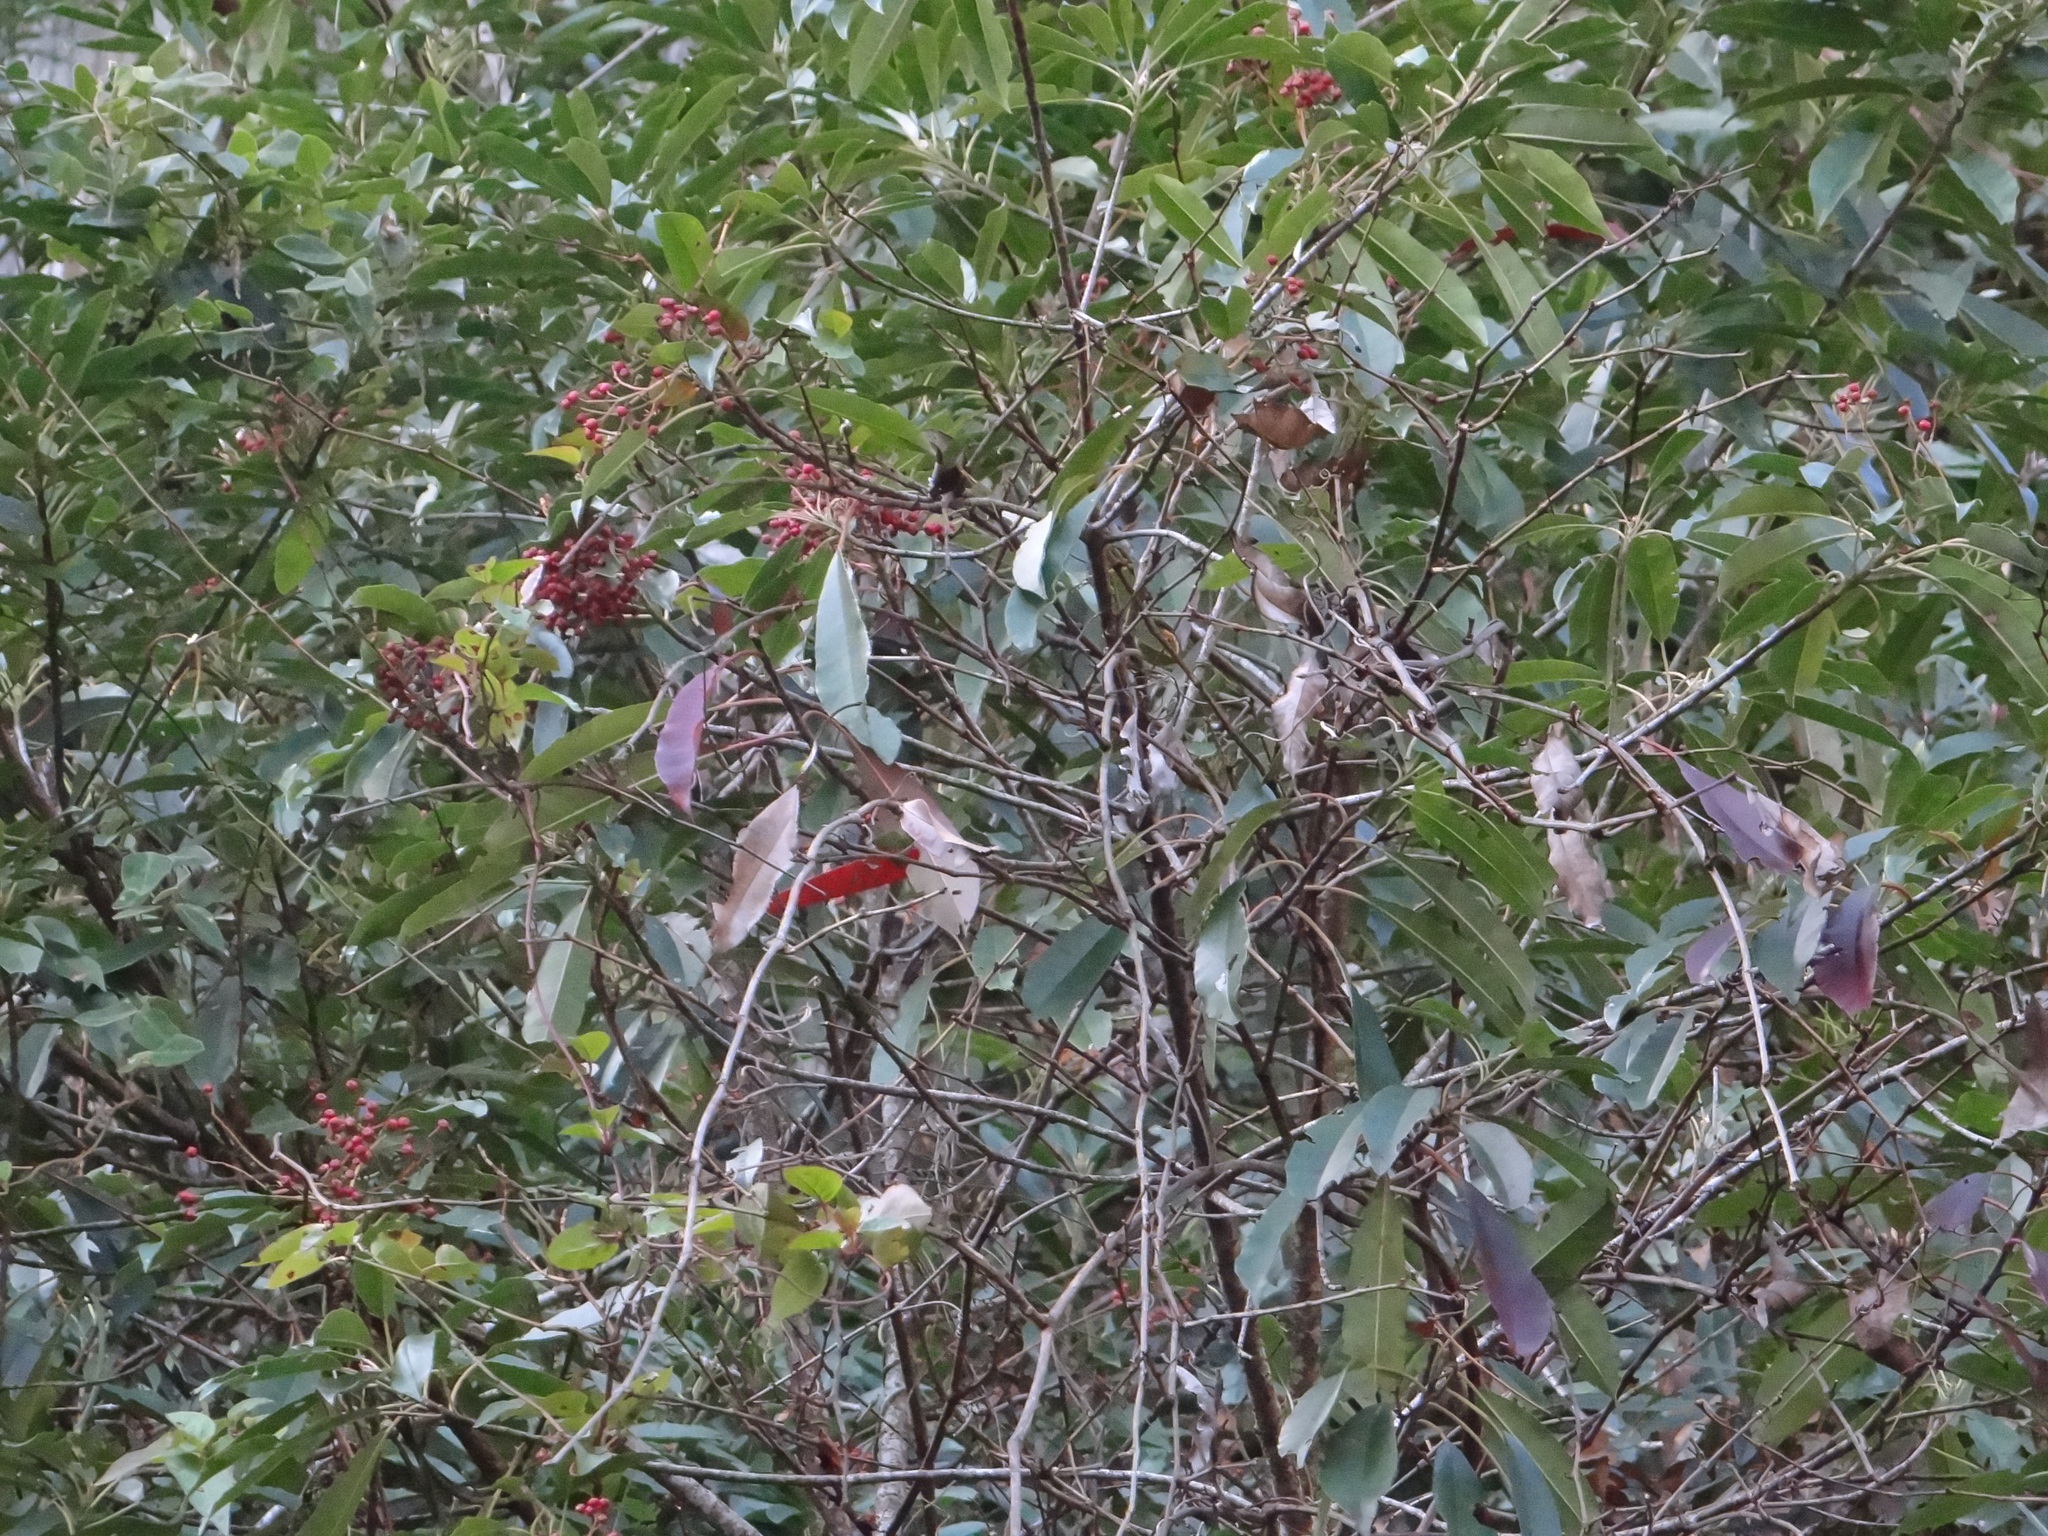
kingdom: Plantae
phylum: Tracheophyta
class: Magnoliopsida
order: Rosales
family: Rosaceae
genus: Stranvaesia
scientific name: Stranvaesia davidiana
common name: Chinese photinia
